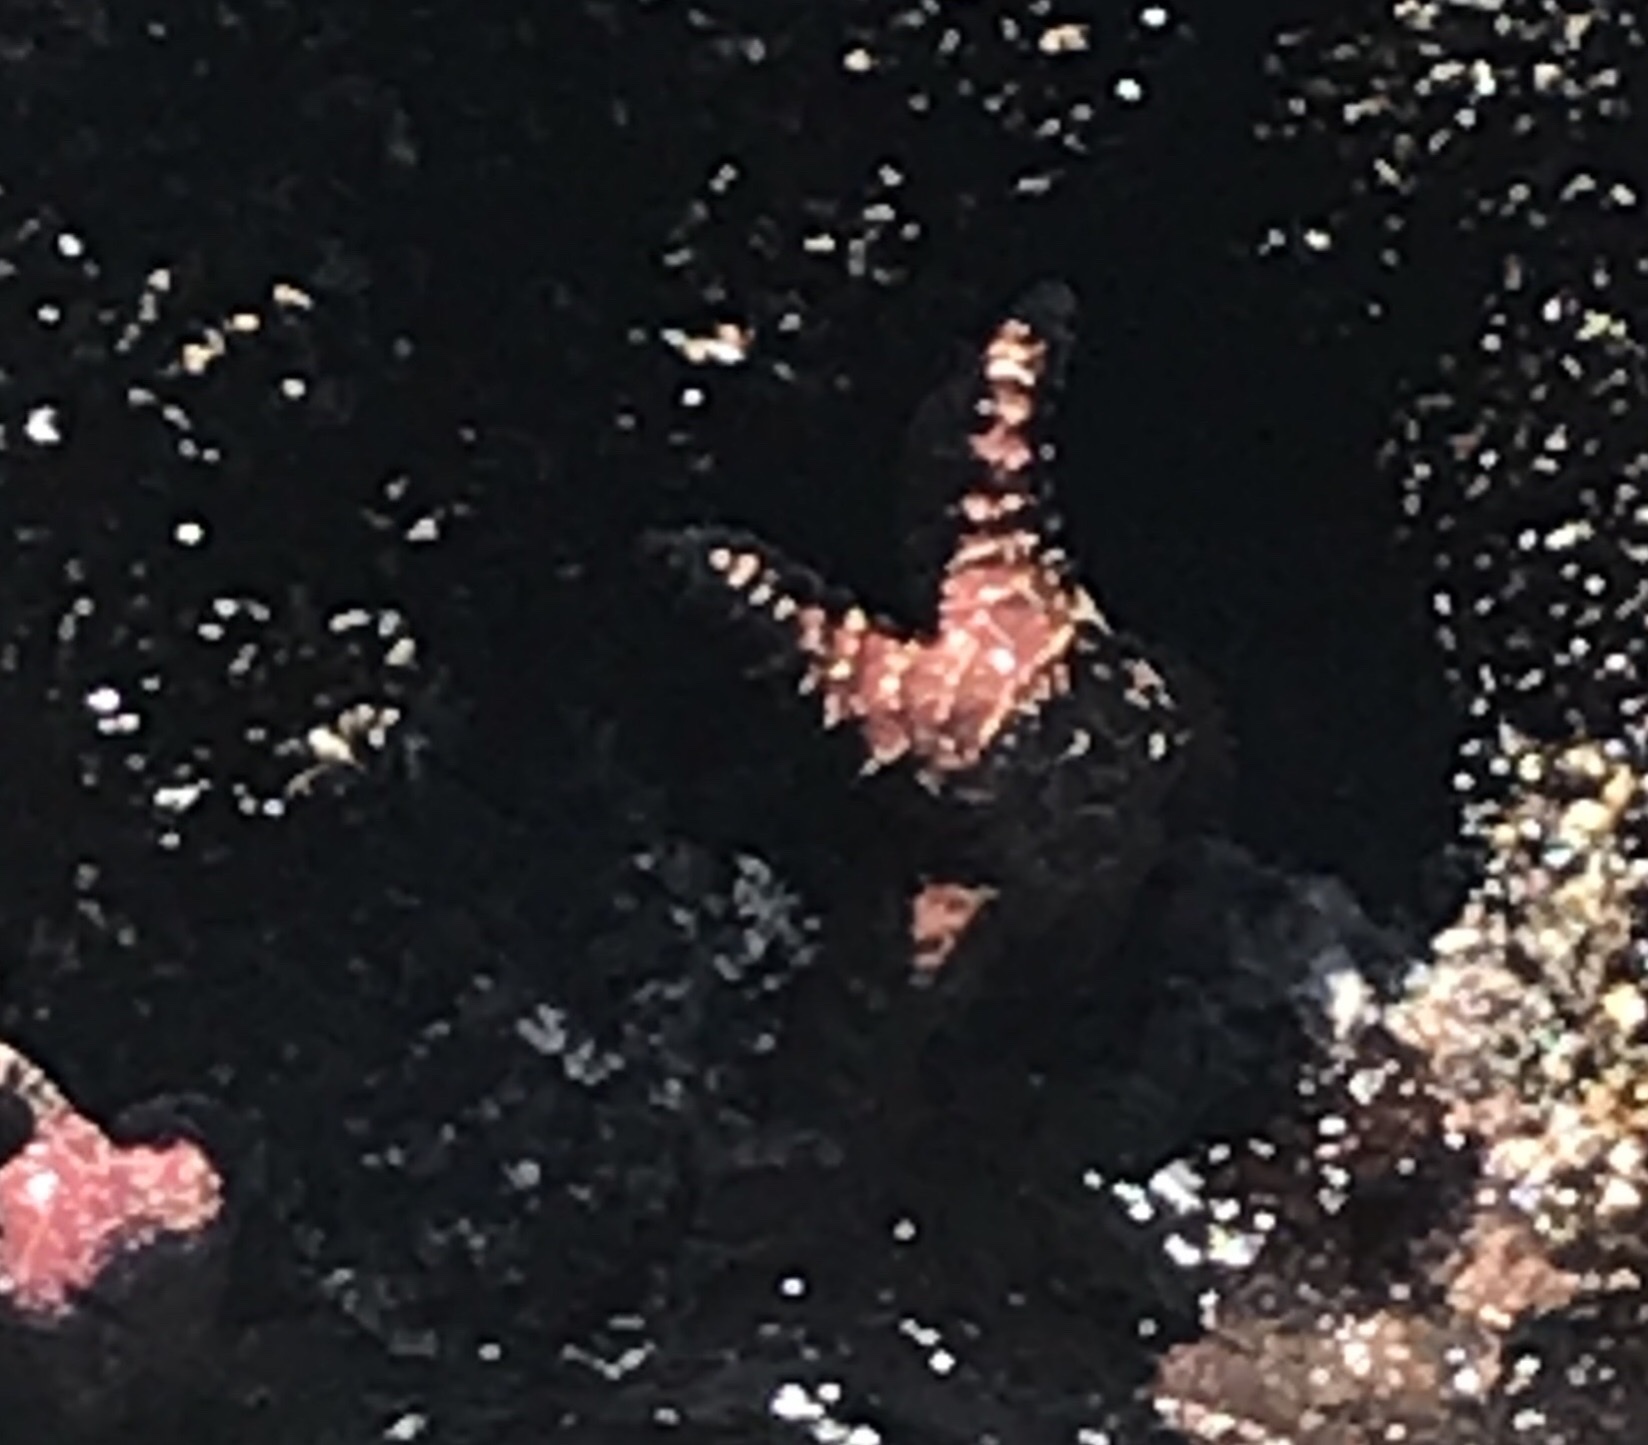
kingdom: Animalia
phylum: Echinodermata
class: Asteroidea
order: Forcipulatida
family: Asteriidae
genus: Pisaster
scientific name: Pisaster ochraceus
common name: Ochre stars
